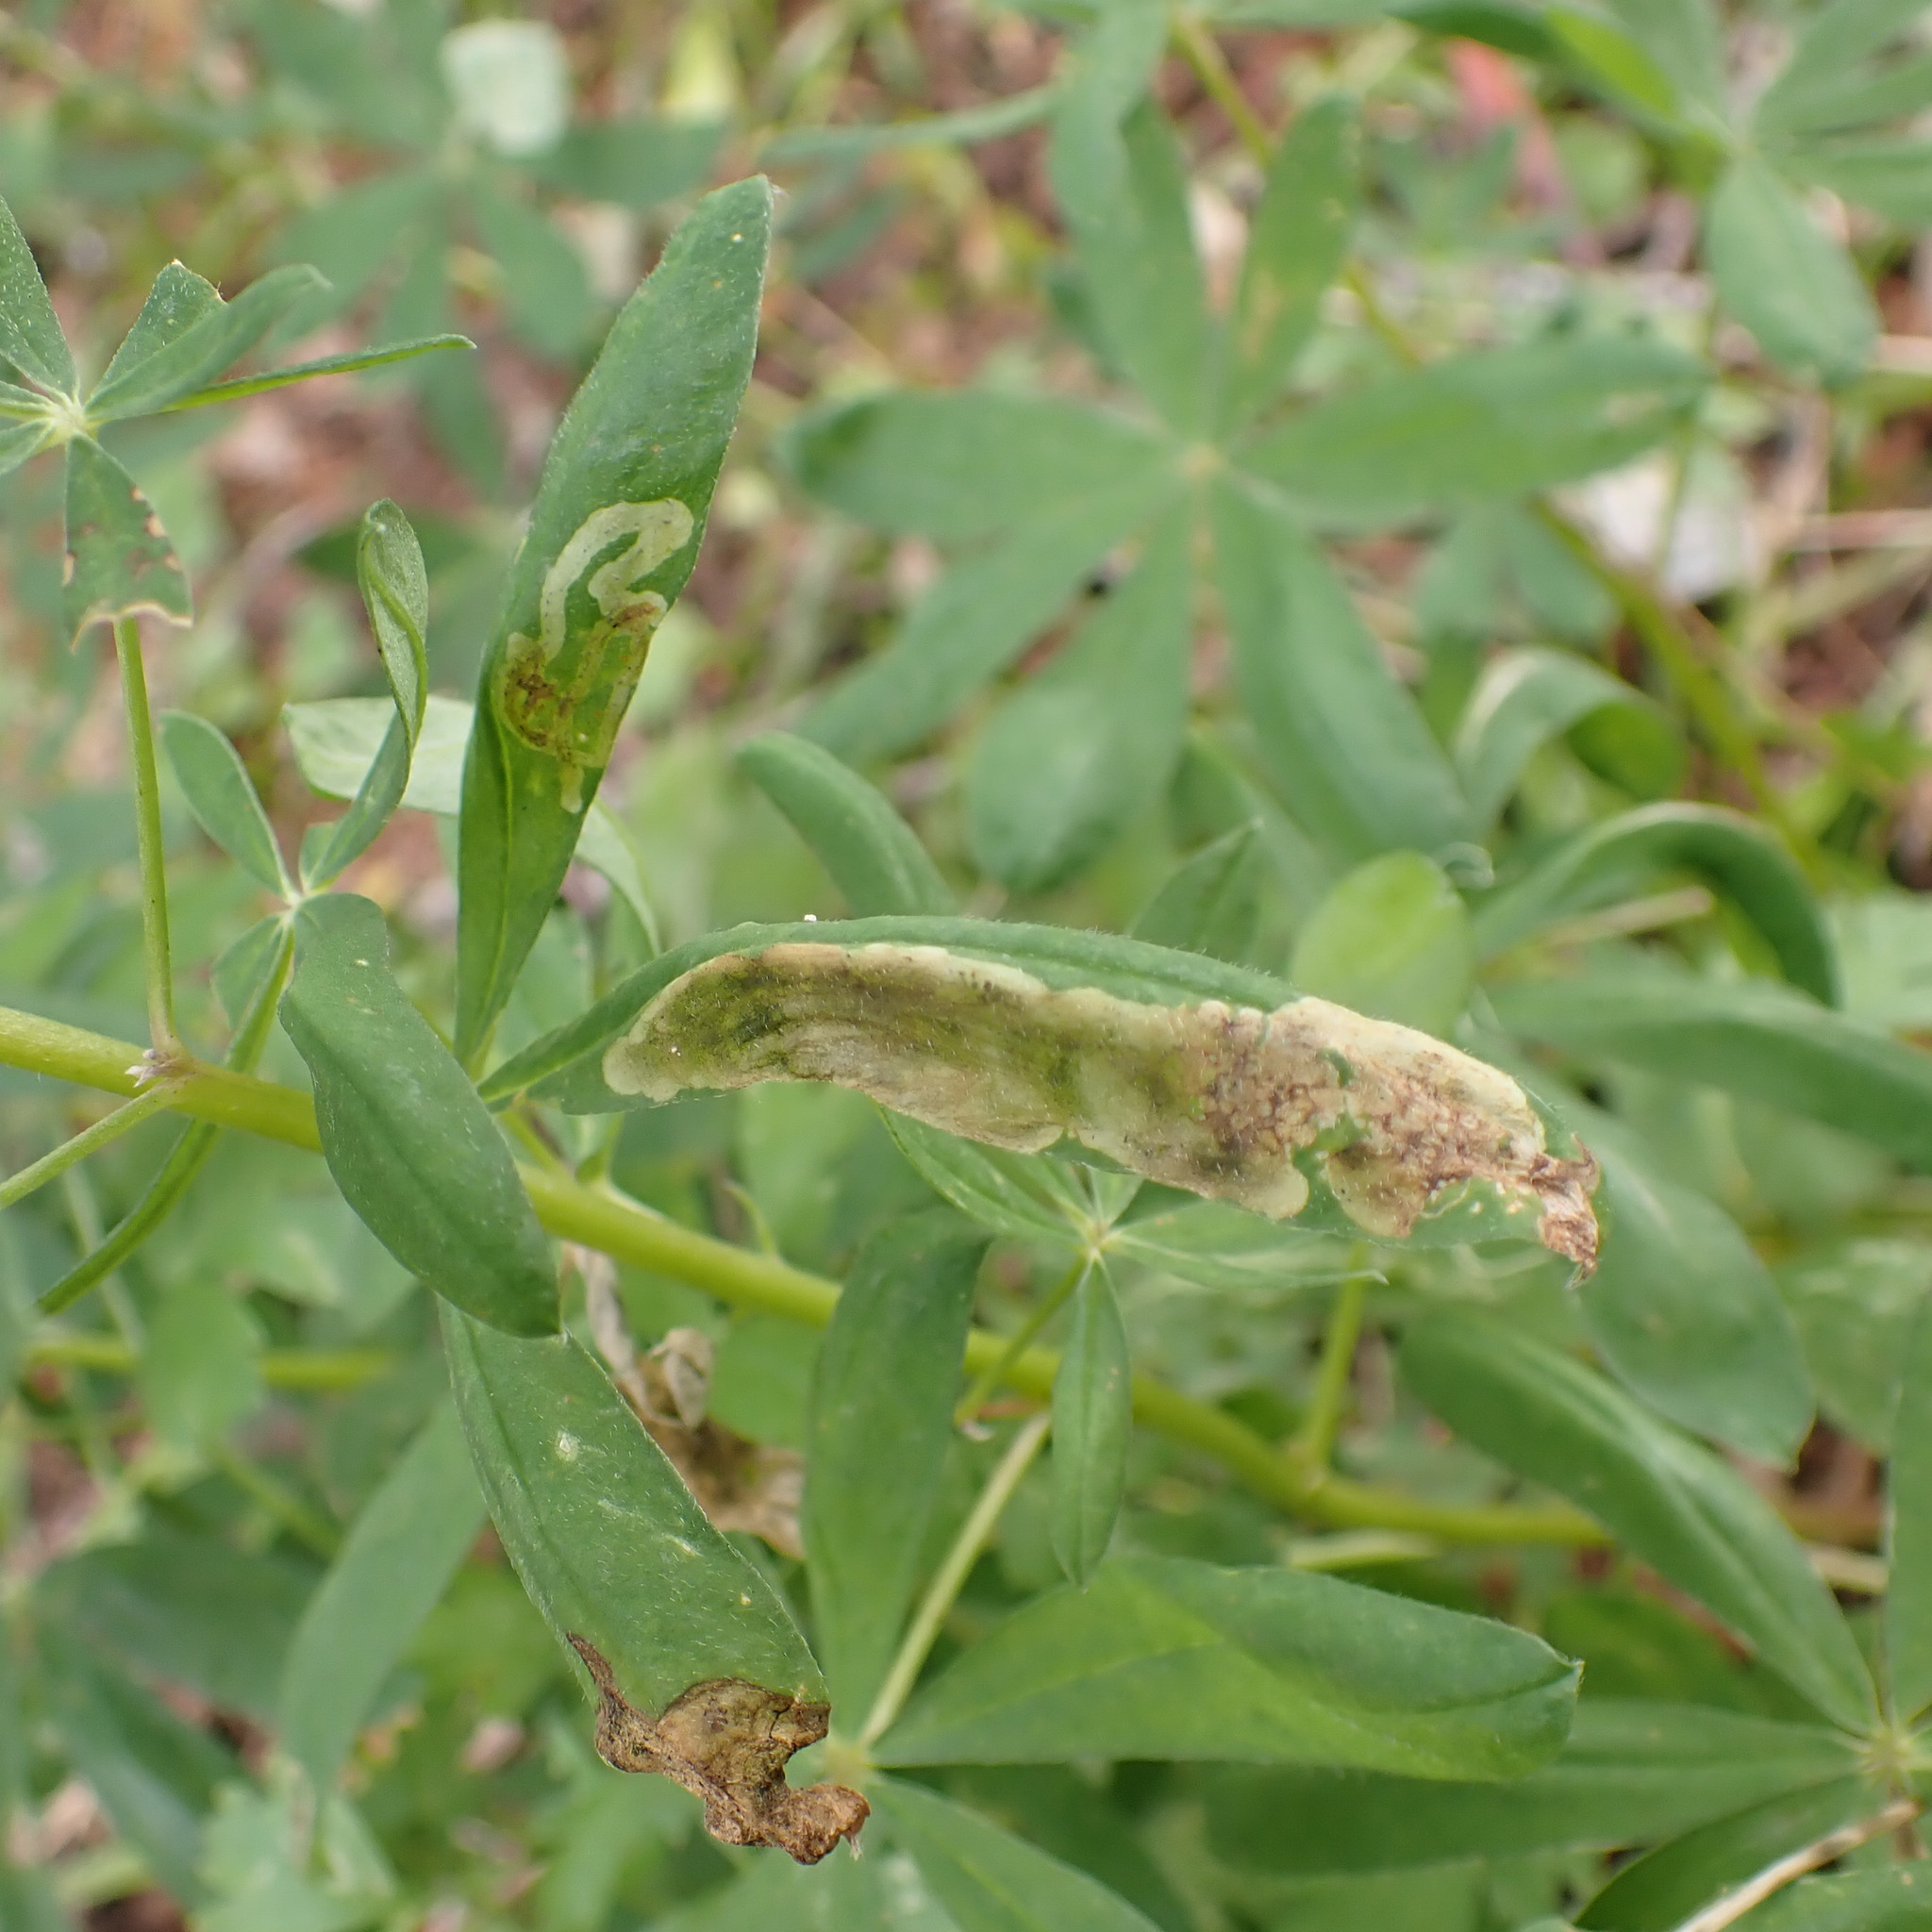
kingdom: Animalia
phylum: Arthropoda
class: Insecta
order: Diptera
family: Anthomyiidae
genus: Pegomya
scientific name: Pegomya tinctisquama
